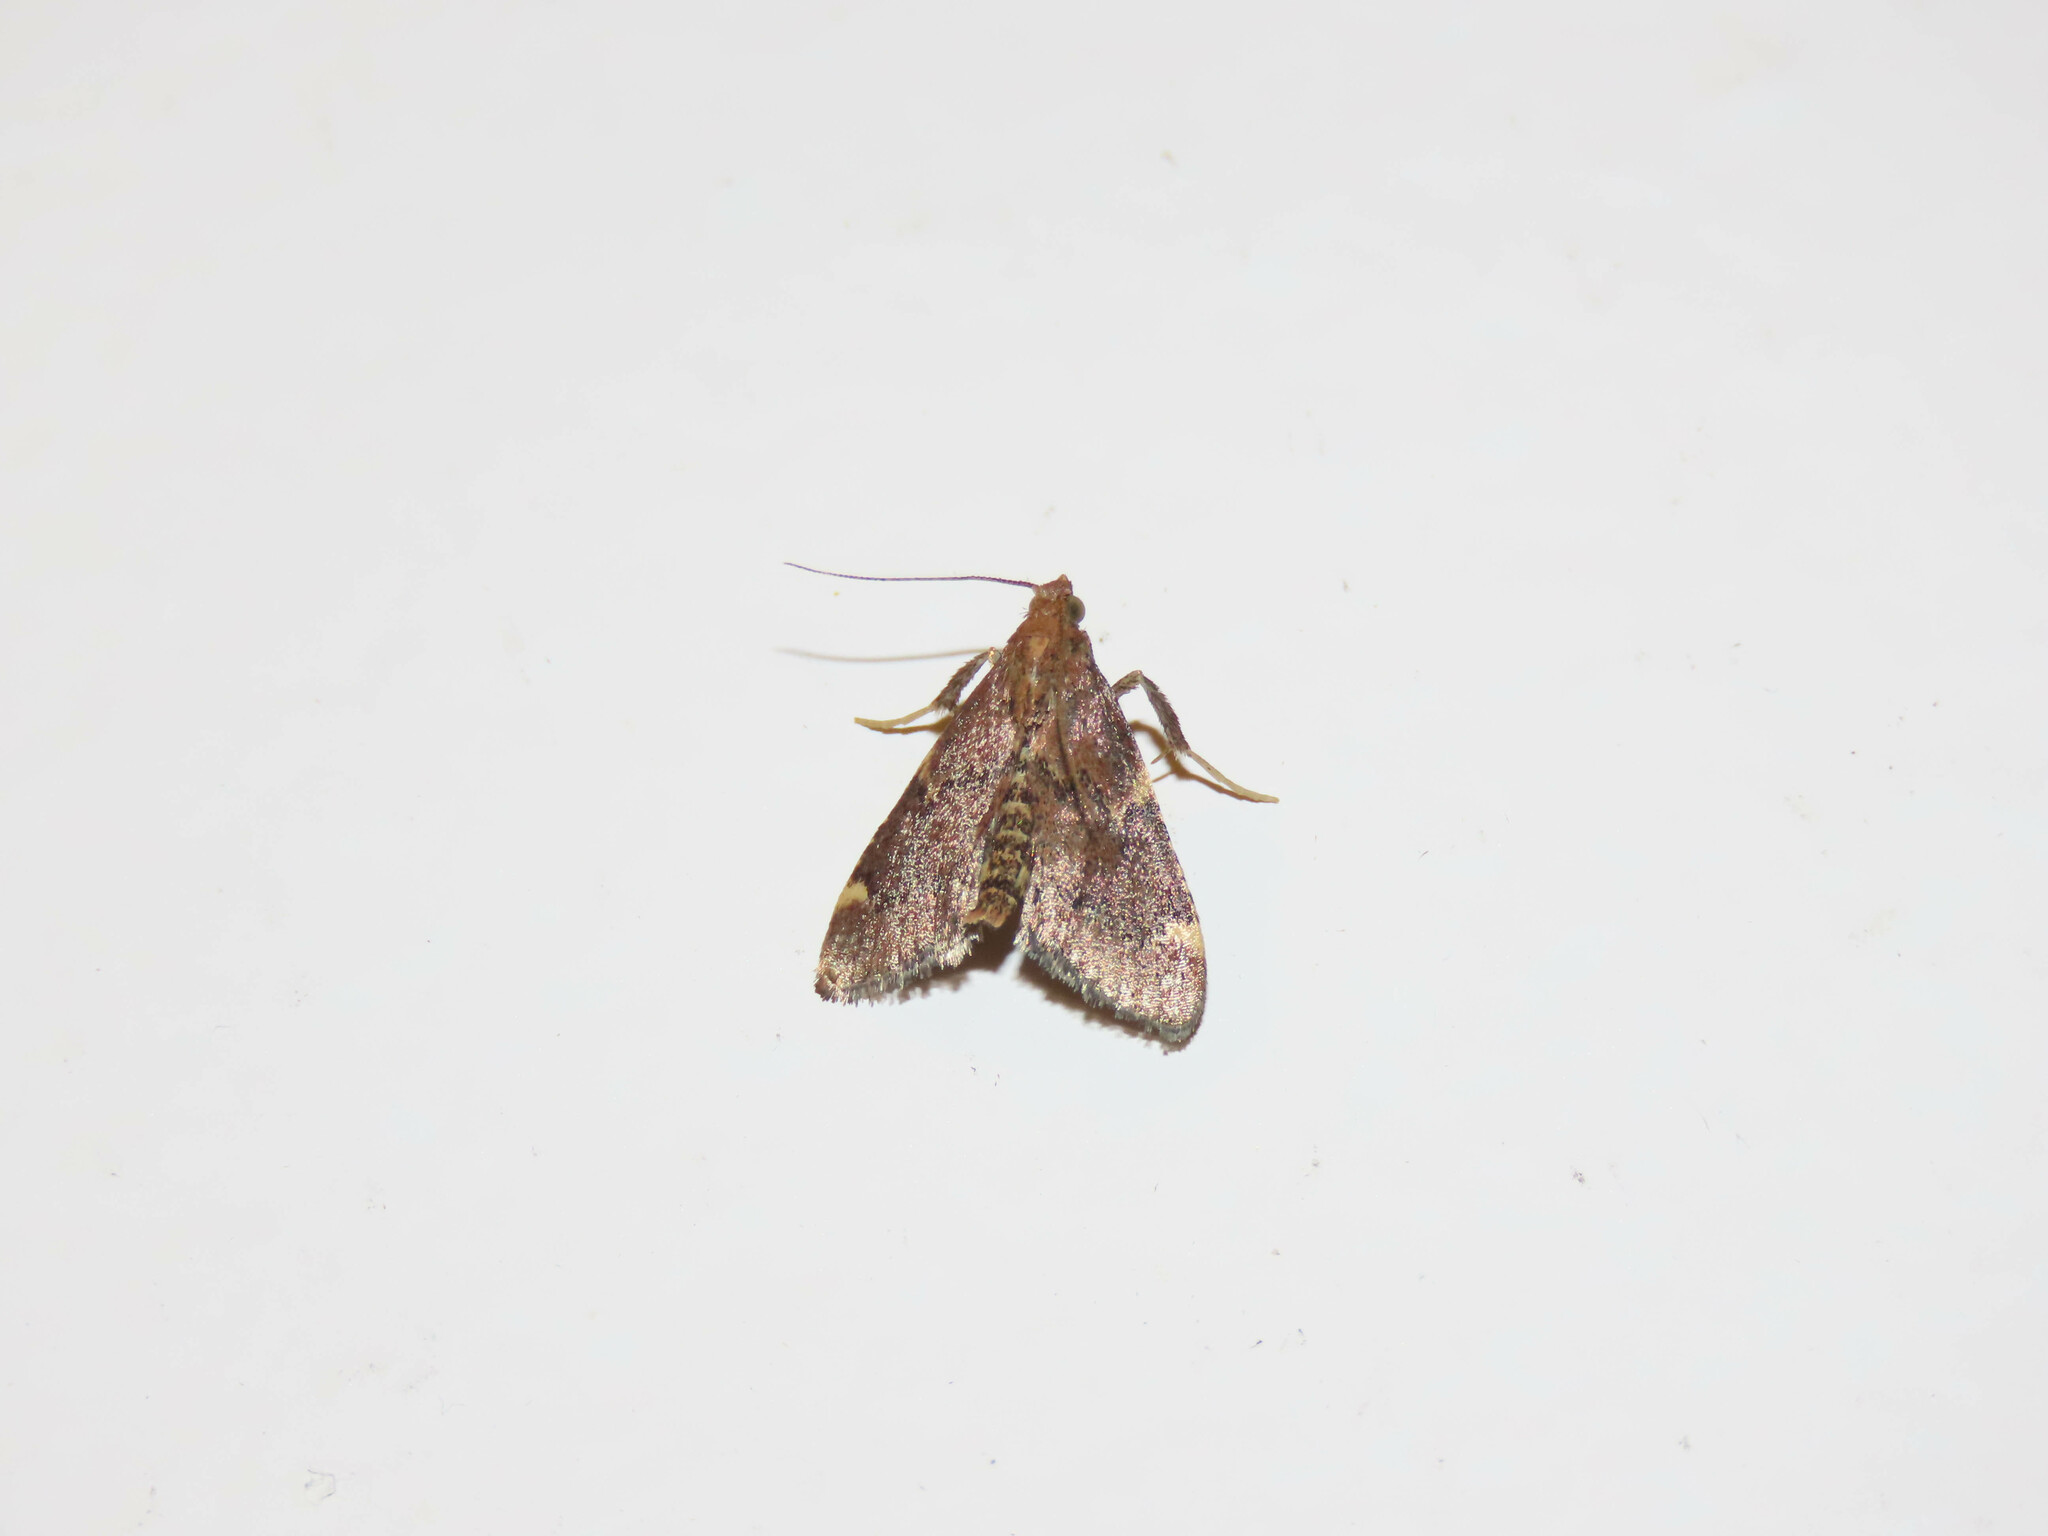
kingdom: Animalia
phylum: Arthropoda
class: Insecta
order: Lepidoptera
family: Pyralidae
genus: Hypsopygia
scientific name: Hypsopygia intermedialis
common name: Red-shawled moth
